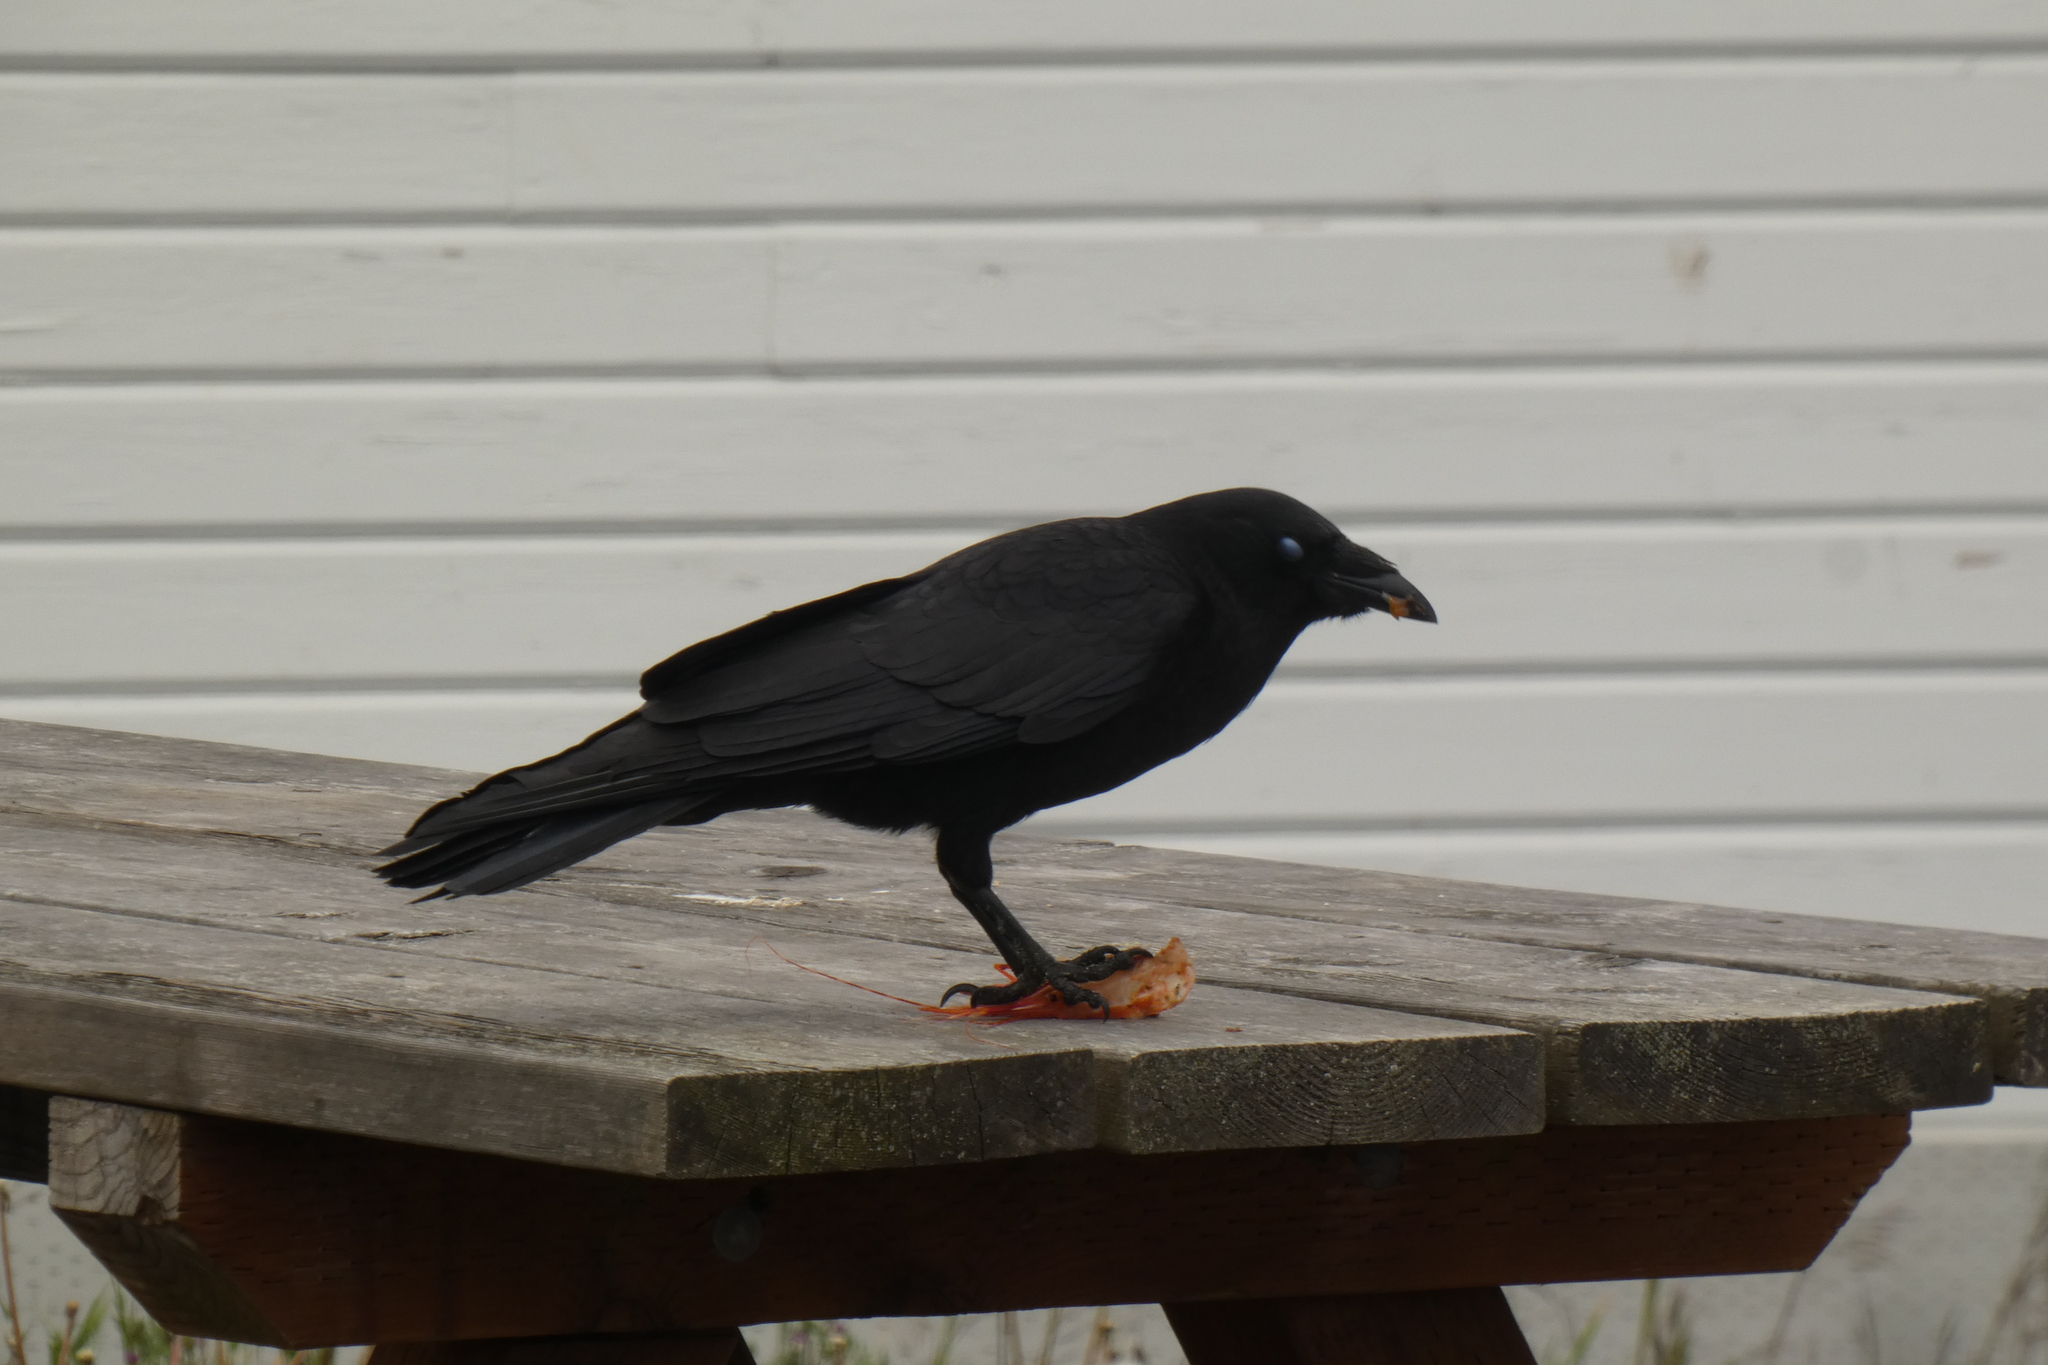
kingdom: Animalia
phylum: Chordata
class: Aves
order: Passeriformes
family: Corvidae
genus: Corvus
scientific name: Corvus brachyrhynchos
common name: American crow
